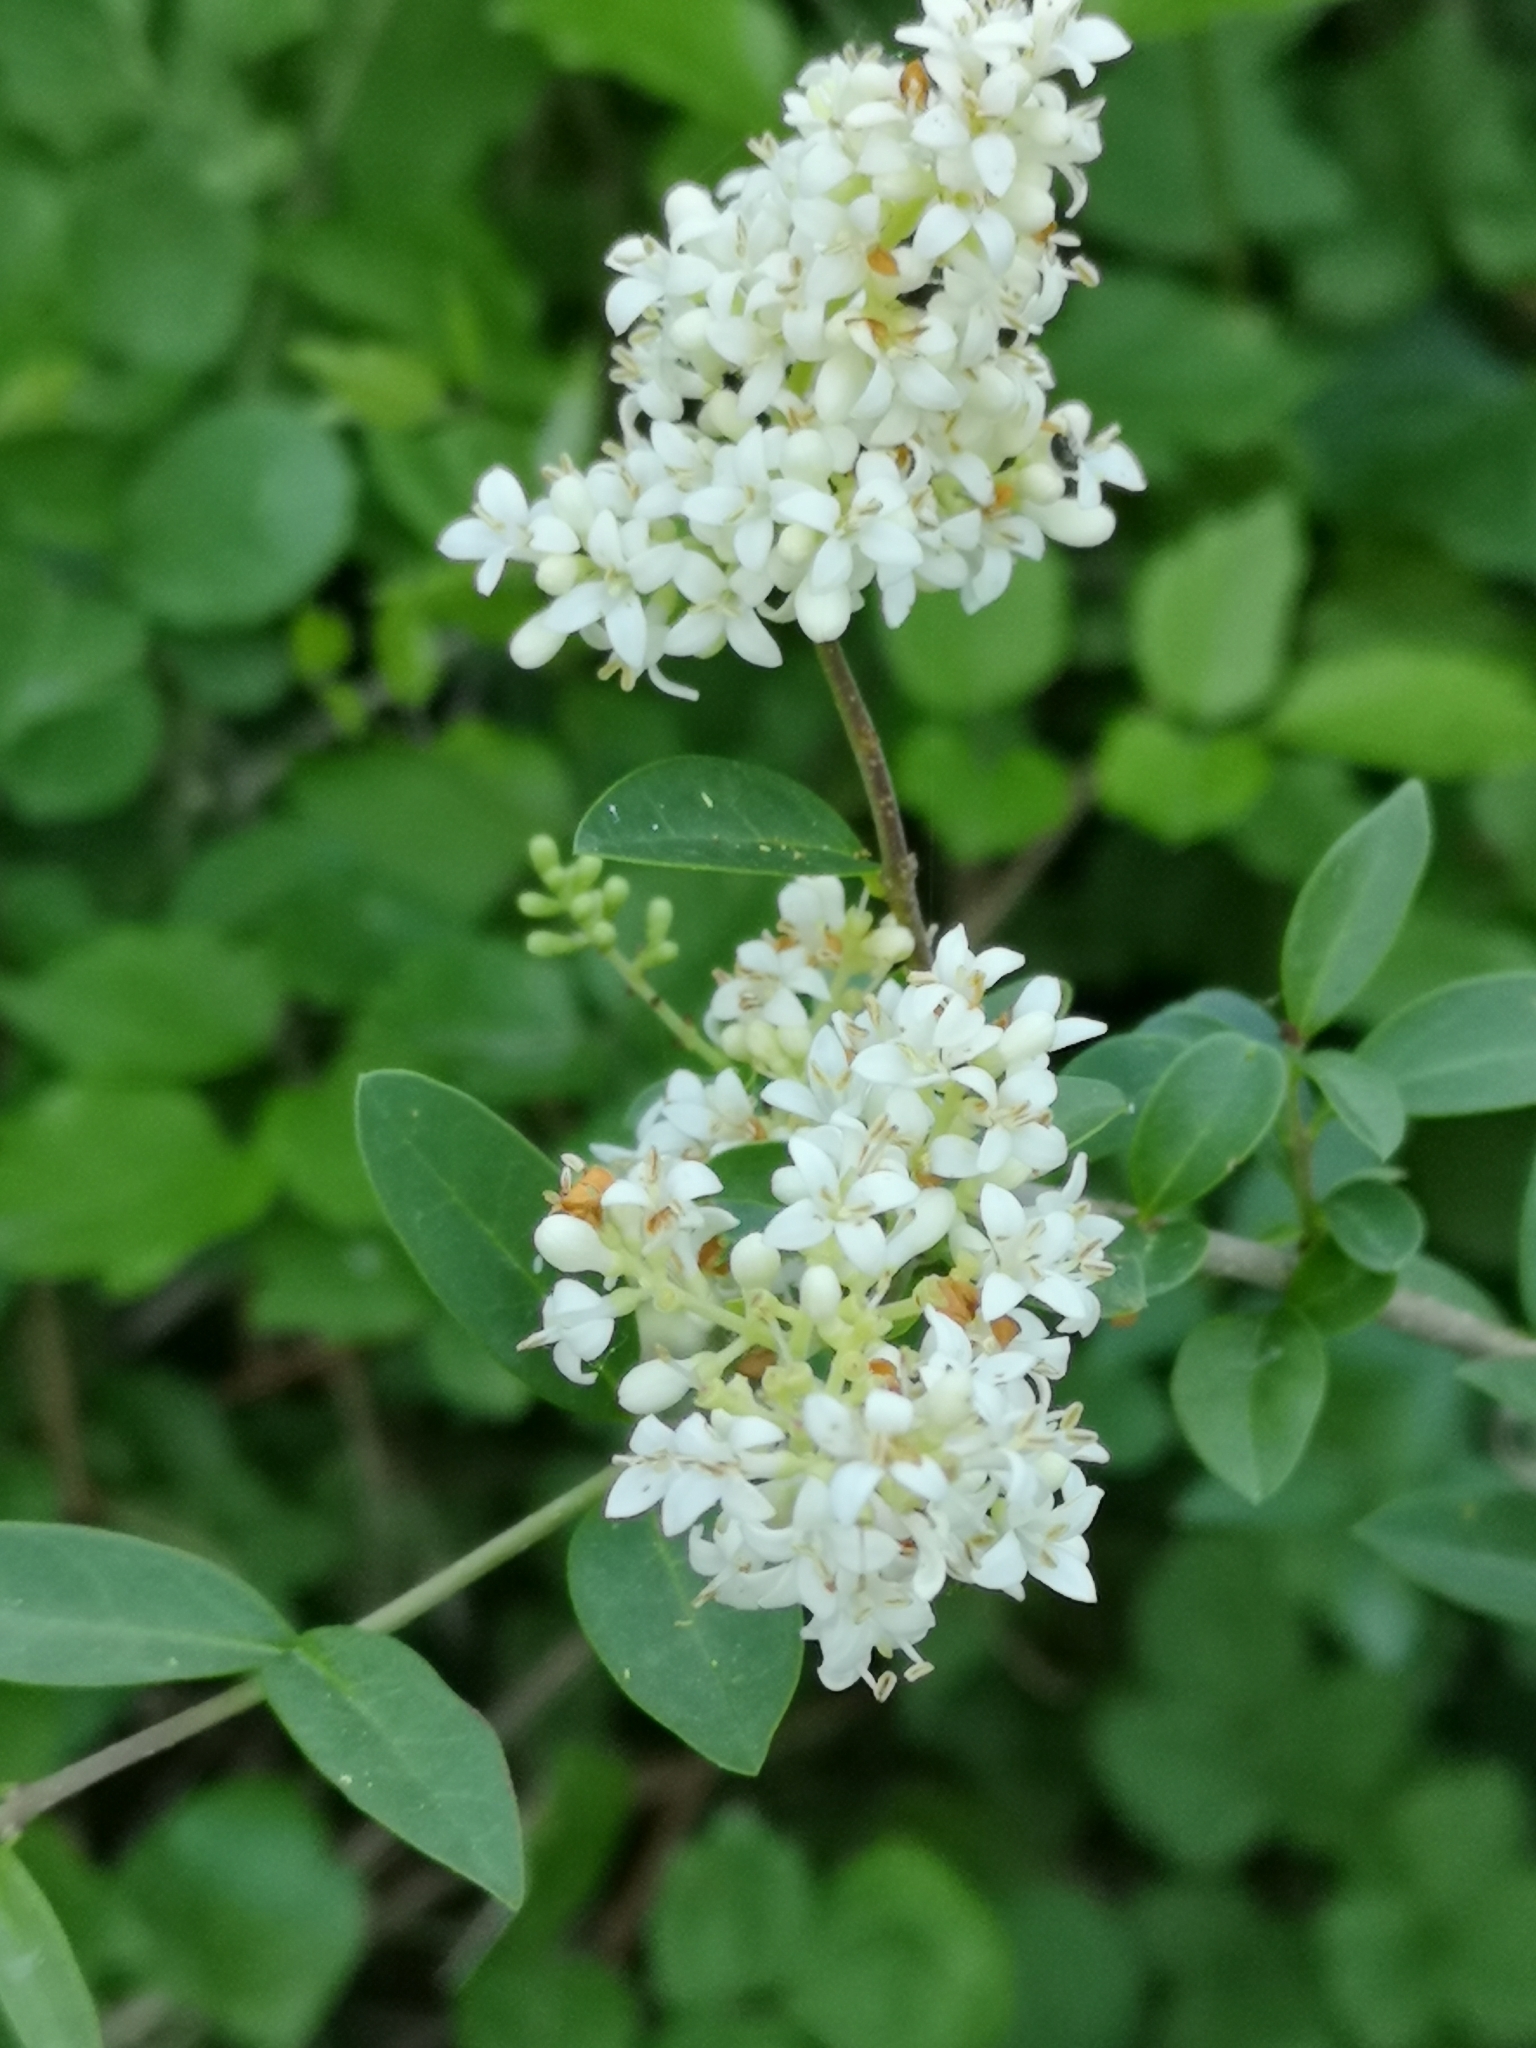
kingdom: Plantae
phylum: Tracheophyta
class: Magnoliopsida
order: Lamiales
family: Oleaceae
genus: Ligustrum
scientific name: Ligustrum vulgare
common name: Wild privet
